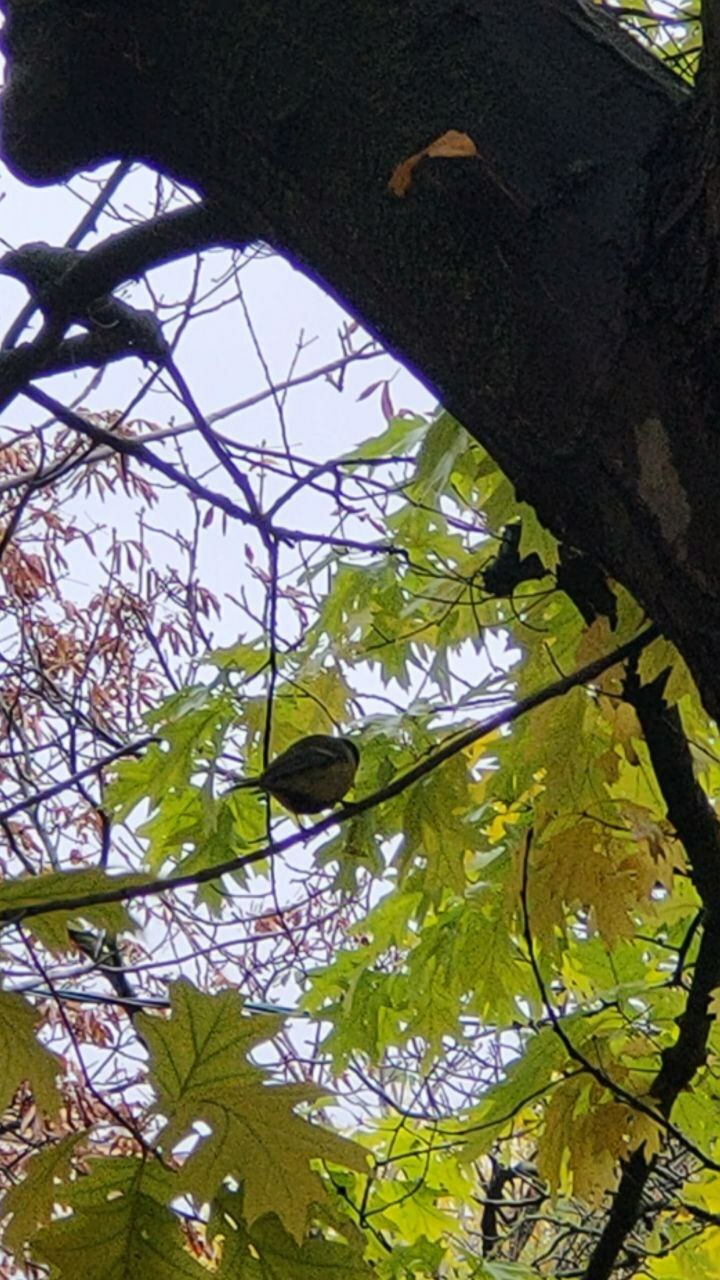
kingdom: Animalia
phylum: Chordata
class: Aves
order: Passeriformes
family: Paridae
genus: Parus
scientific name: Parus major
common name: Great tit
